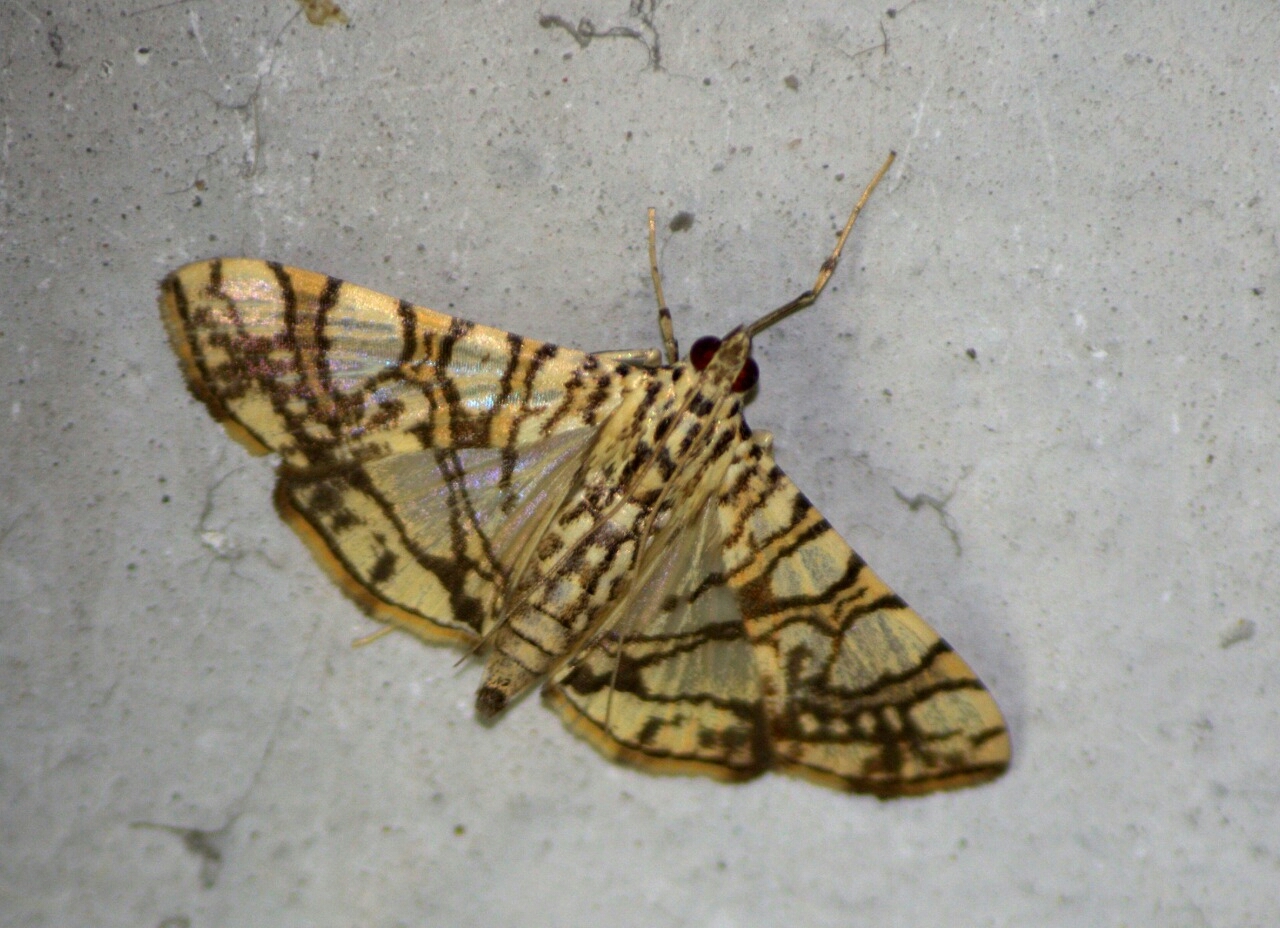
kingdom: Animalia
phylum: Arthropoda
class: Insecta
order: Lepidoptera
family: Crambidae
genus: Glyphodes
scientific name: Glyphodes caesalis
